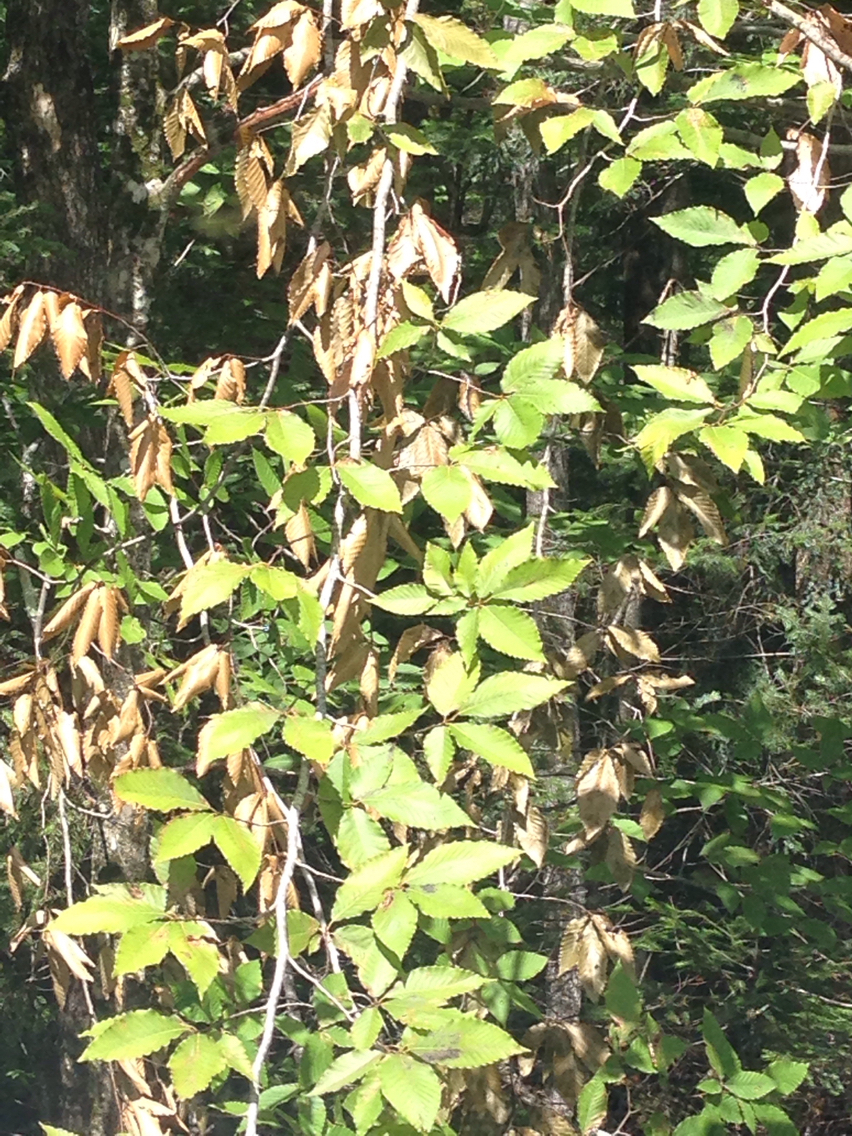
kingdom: Plantae
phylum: Tracheophyta
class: Magnoliopsida
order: Fagales
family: Fagaceae
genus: Fagus
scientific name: Fagus grandifolia
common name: American beech
